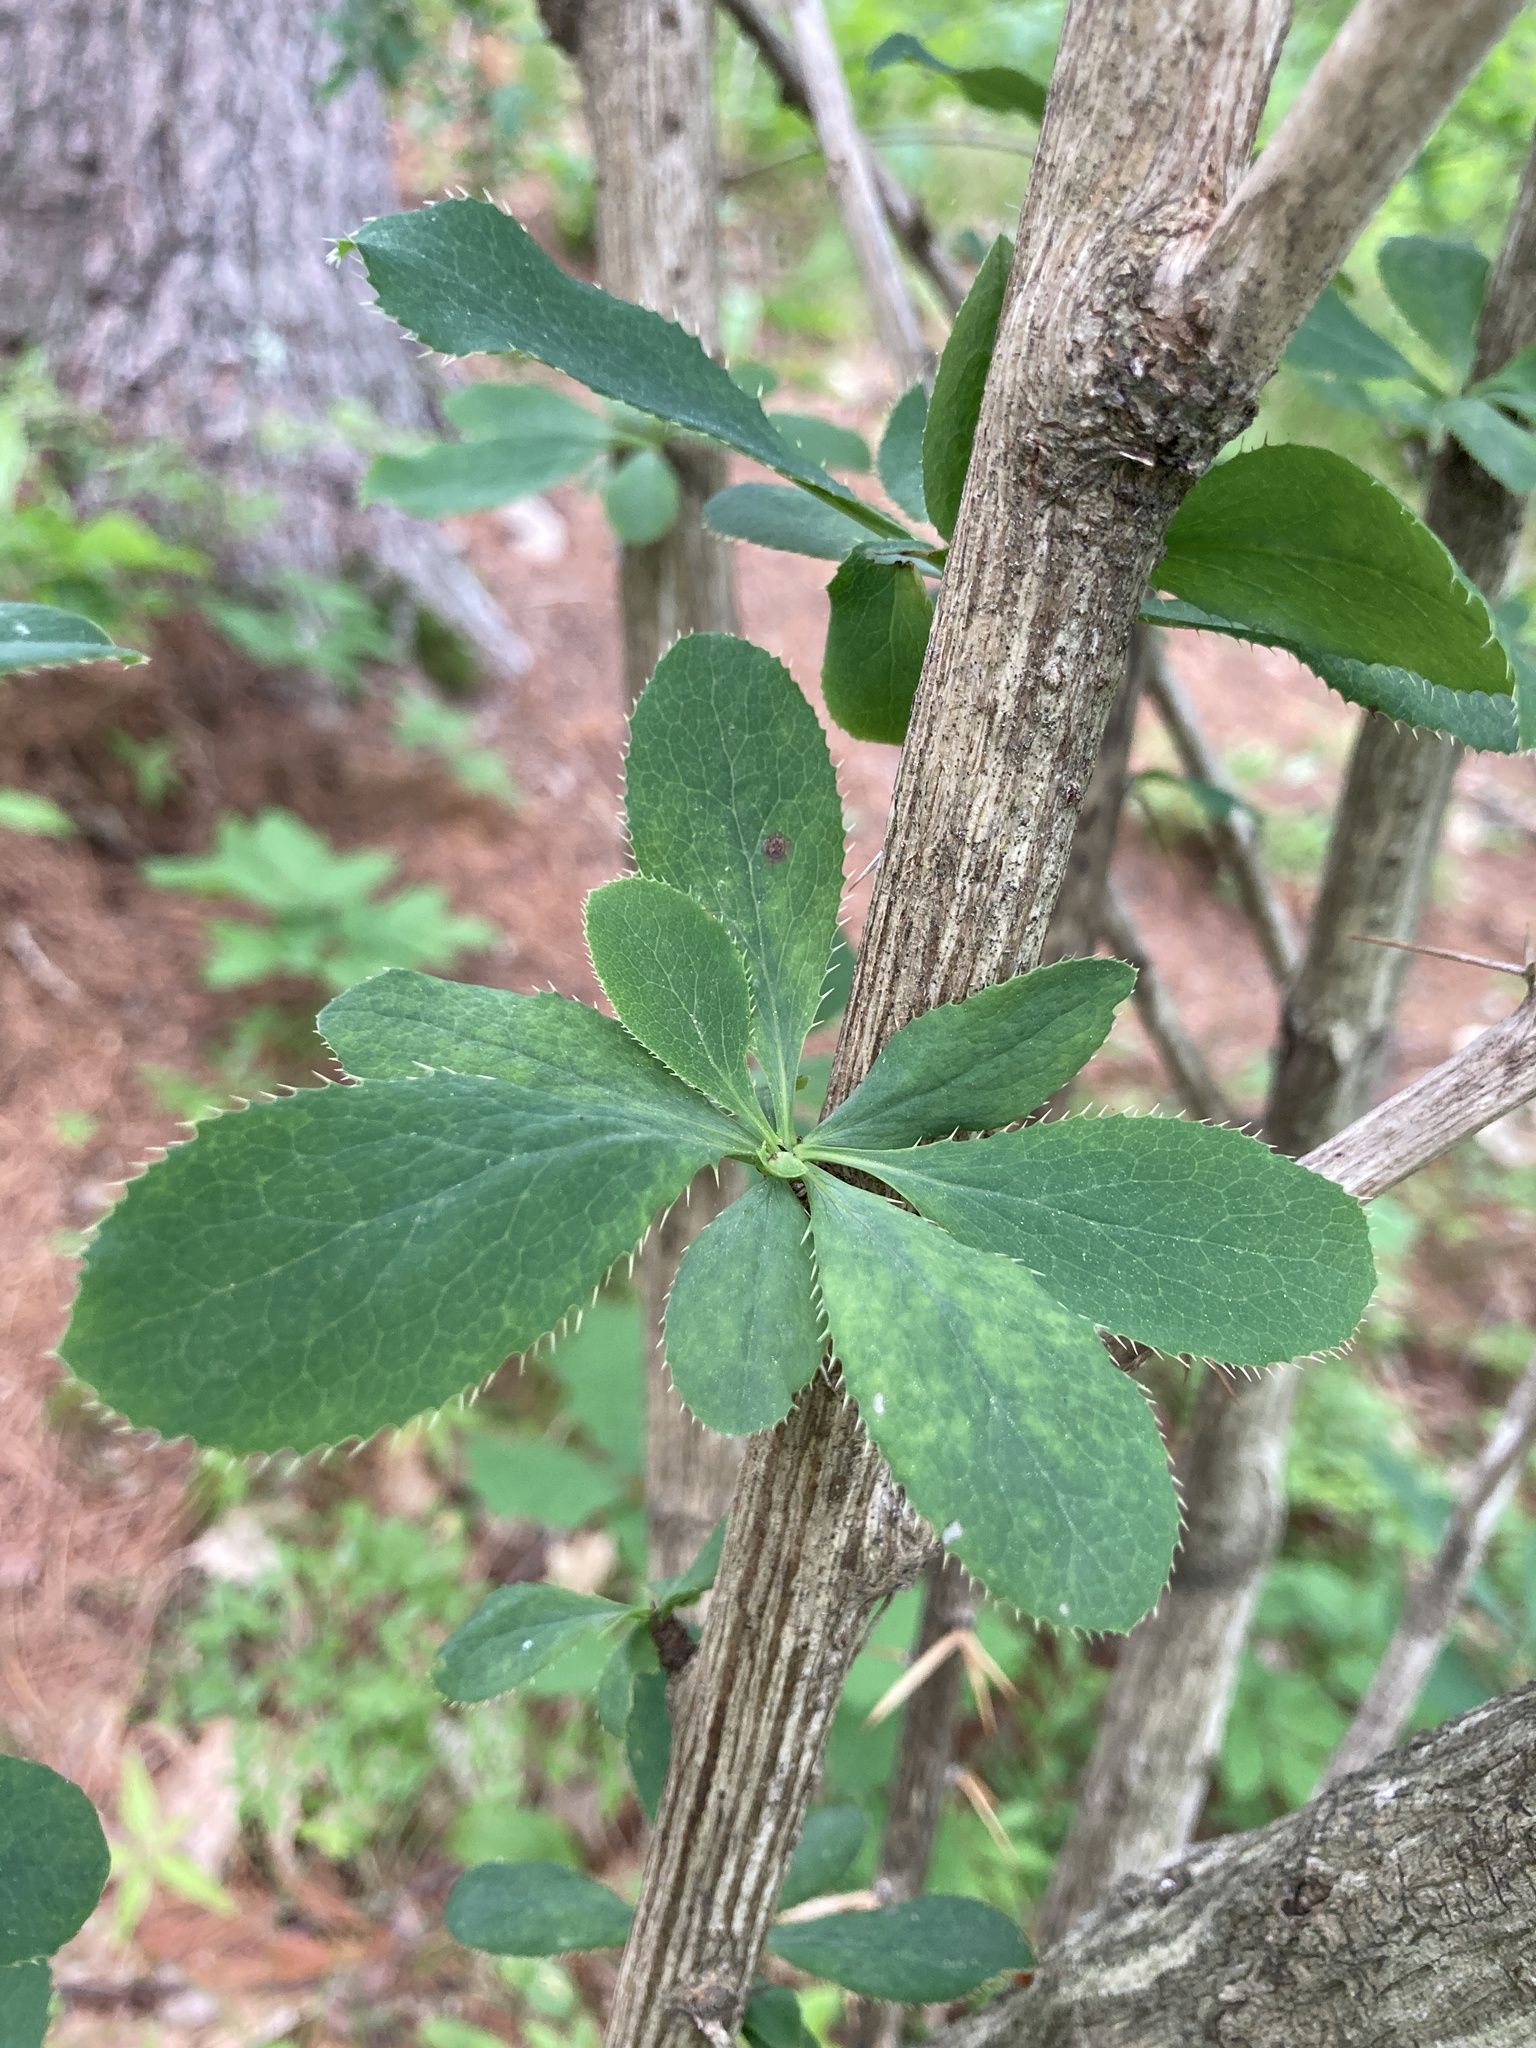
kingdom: Plantae
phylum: Tracheophyta
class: Magnoliopsida
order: Ranunculales
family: Berberidaceae
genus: Berberis
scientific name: Berberis vulgaris
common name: Barberry
